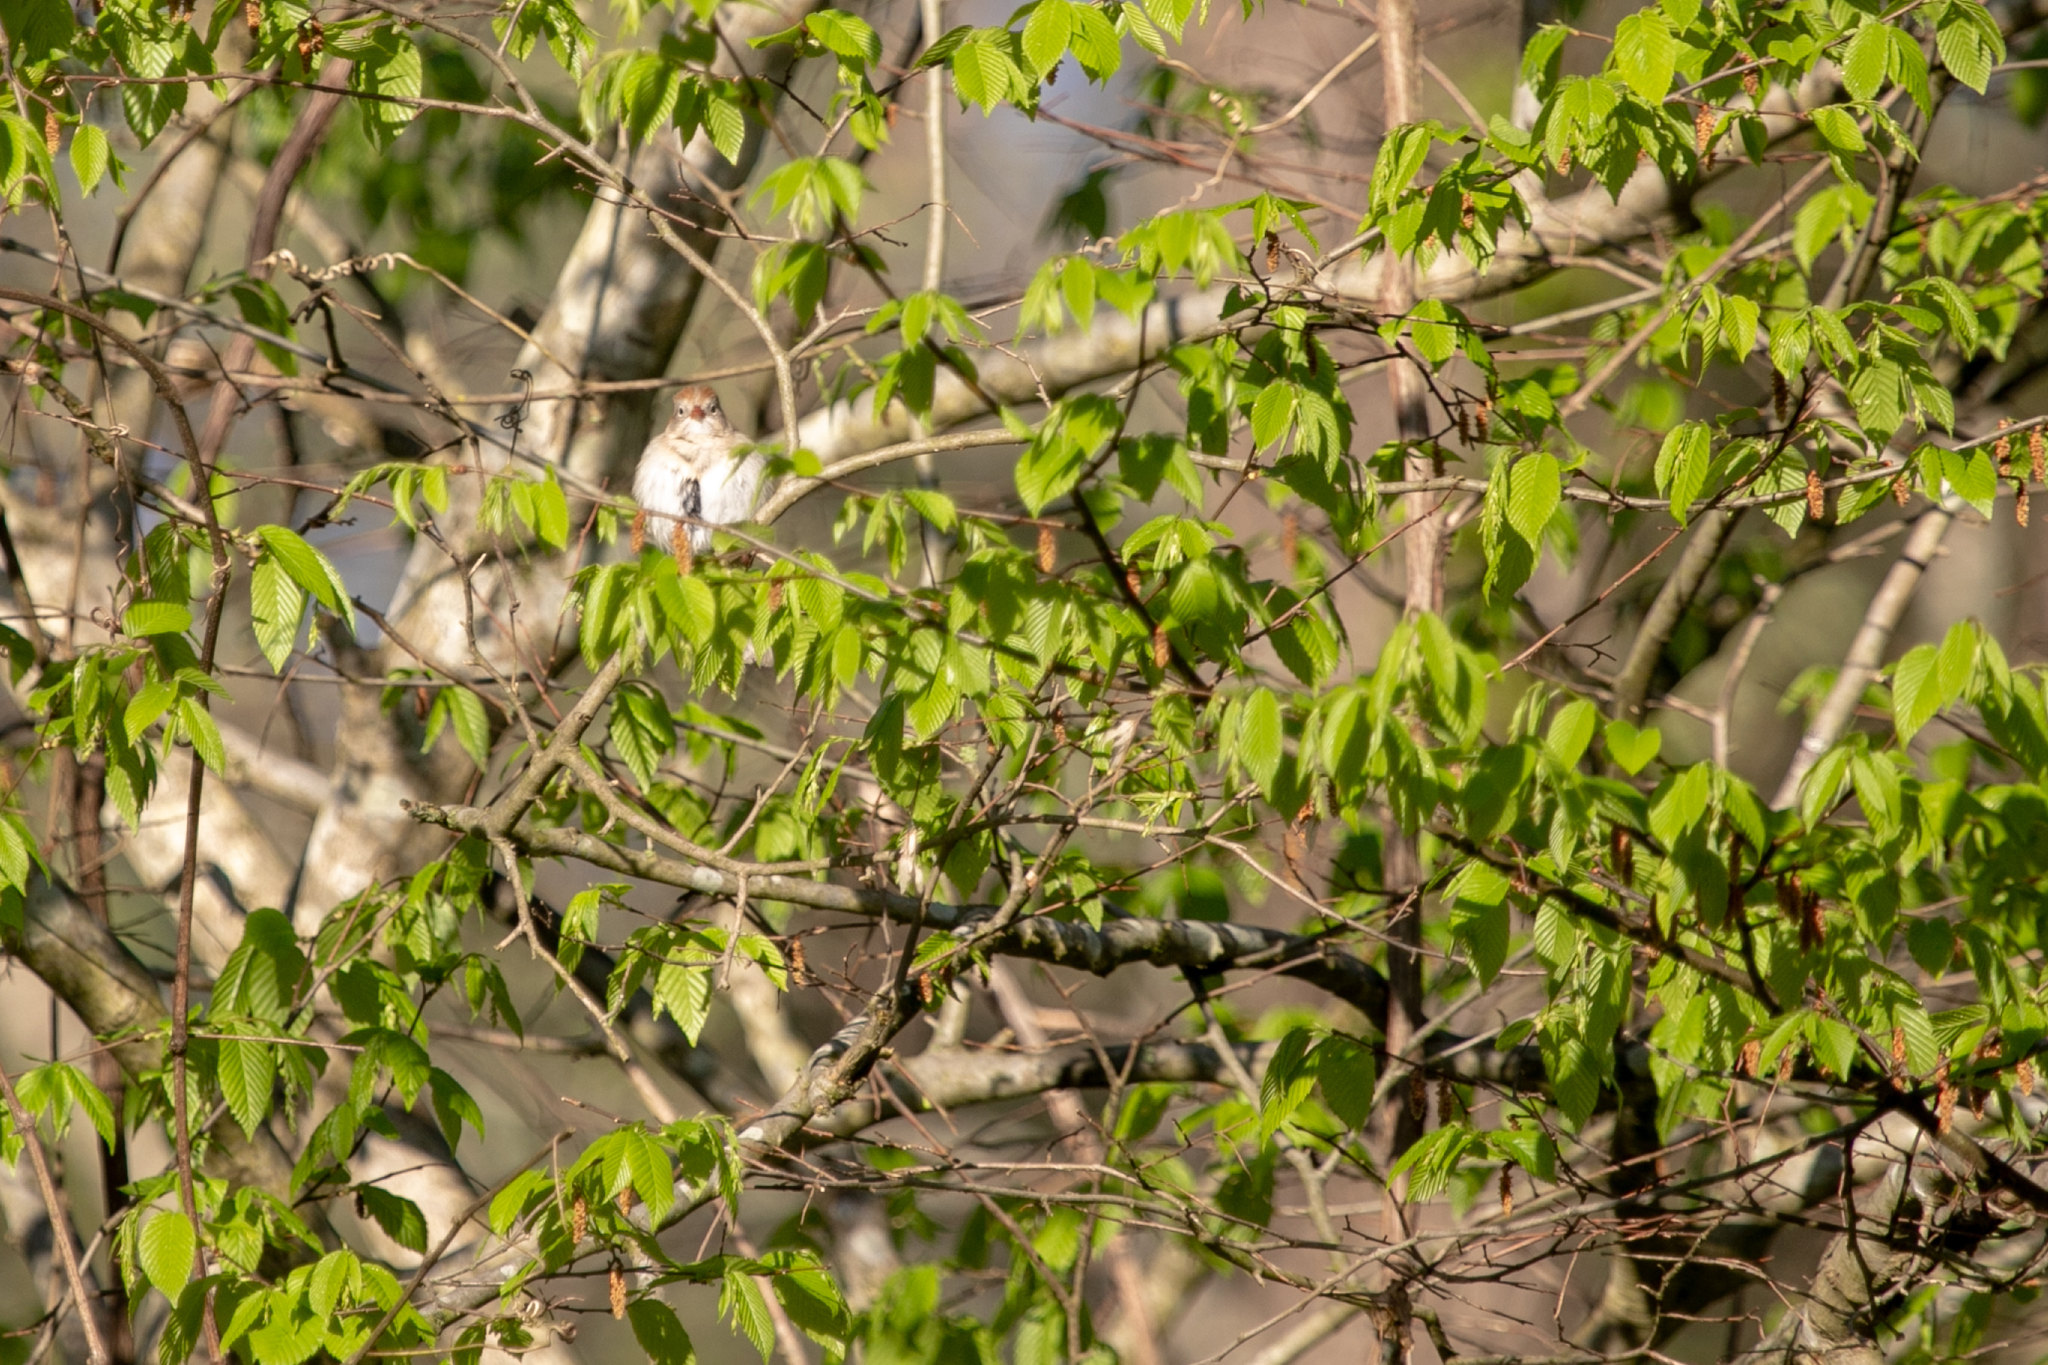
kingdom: Animalia
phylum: Chordata
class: Aves
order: Passeriformes
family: Passerellidae
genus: Spizella
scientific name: Spizella pusilla
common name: Field sparrow
